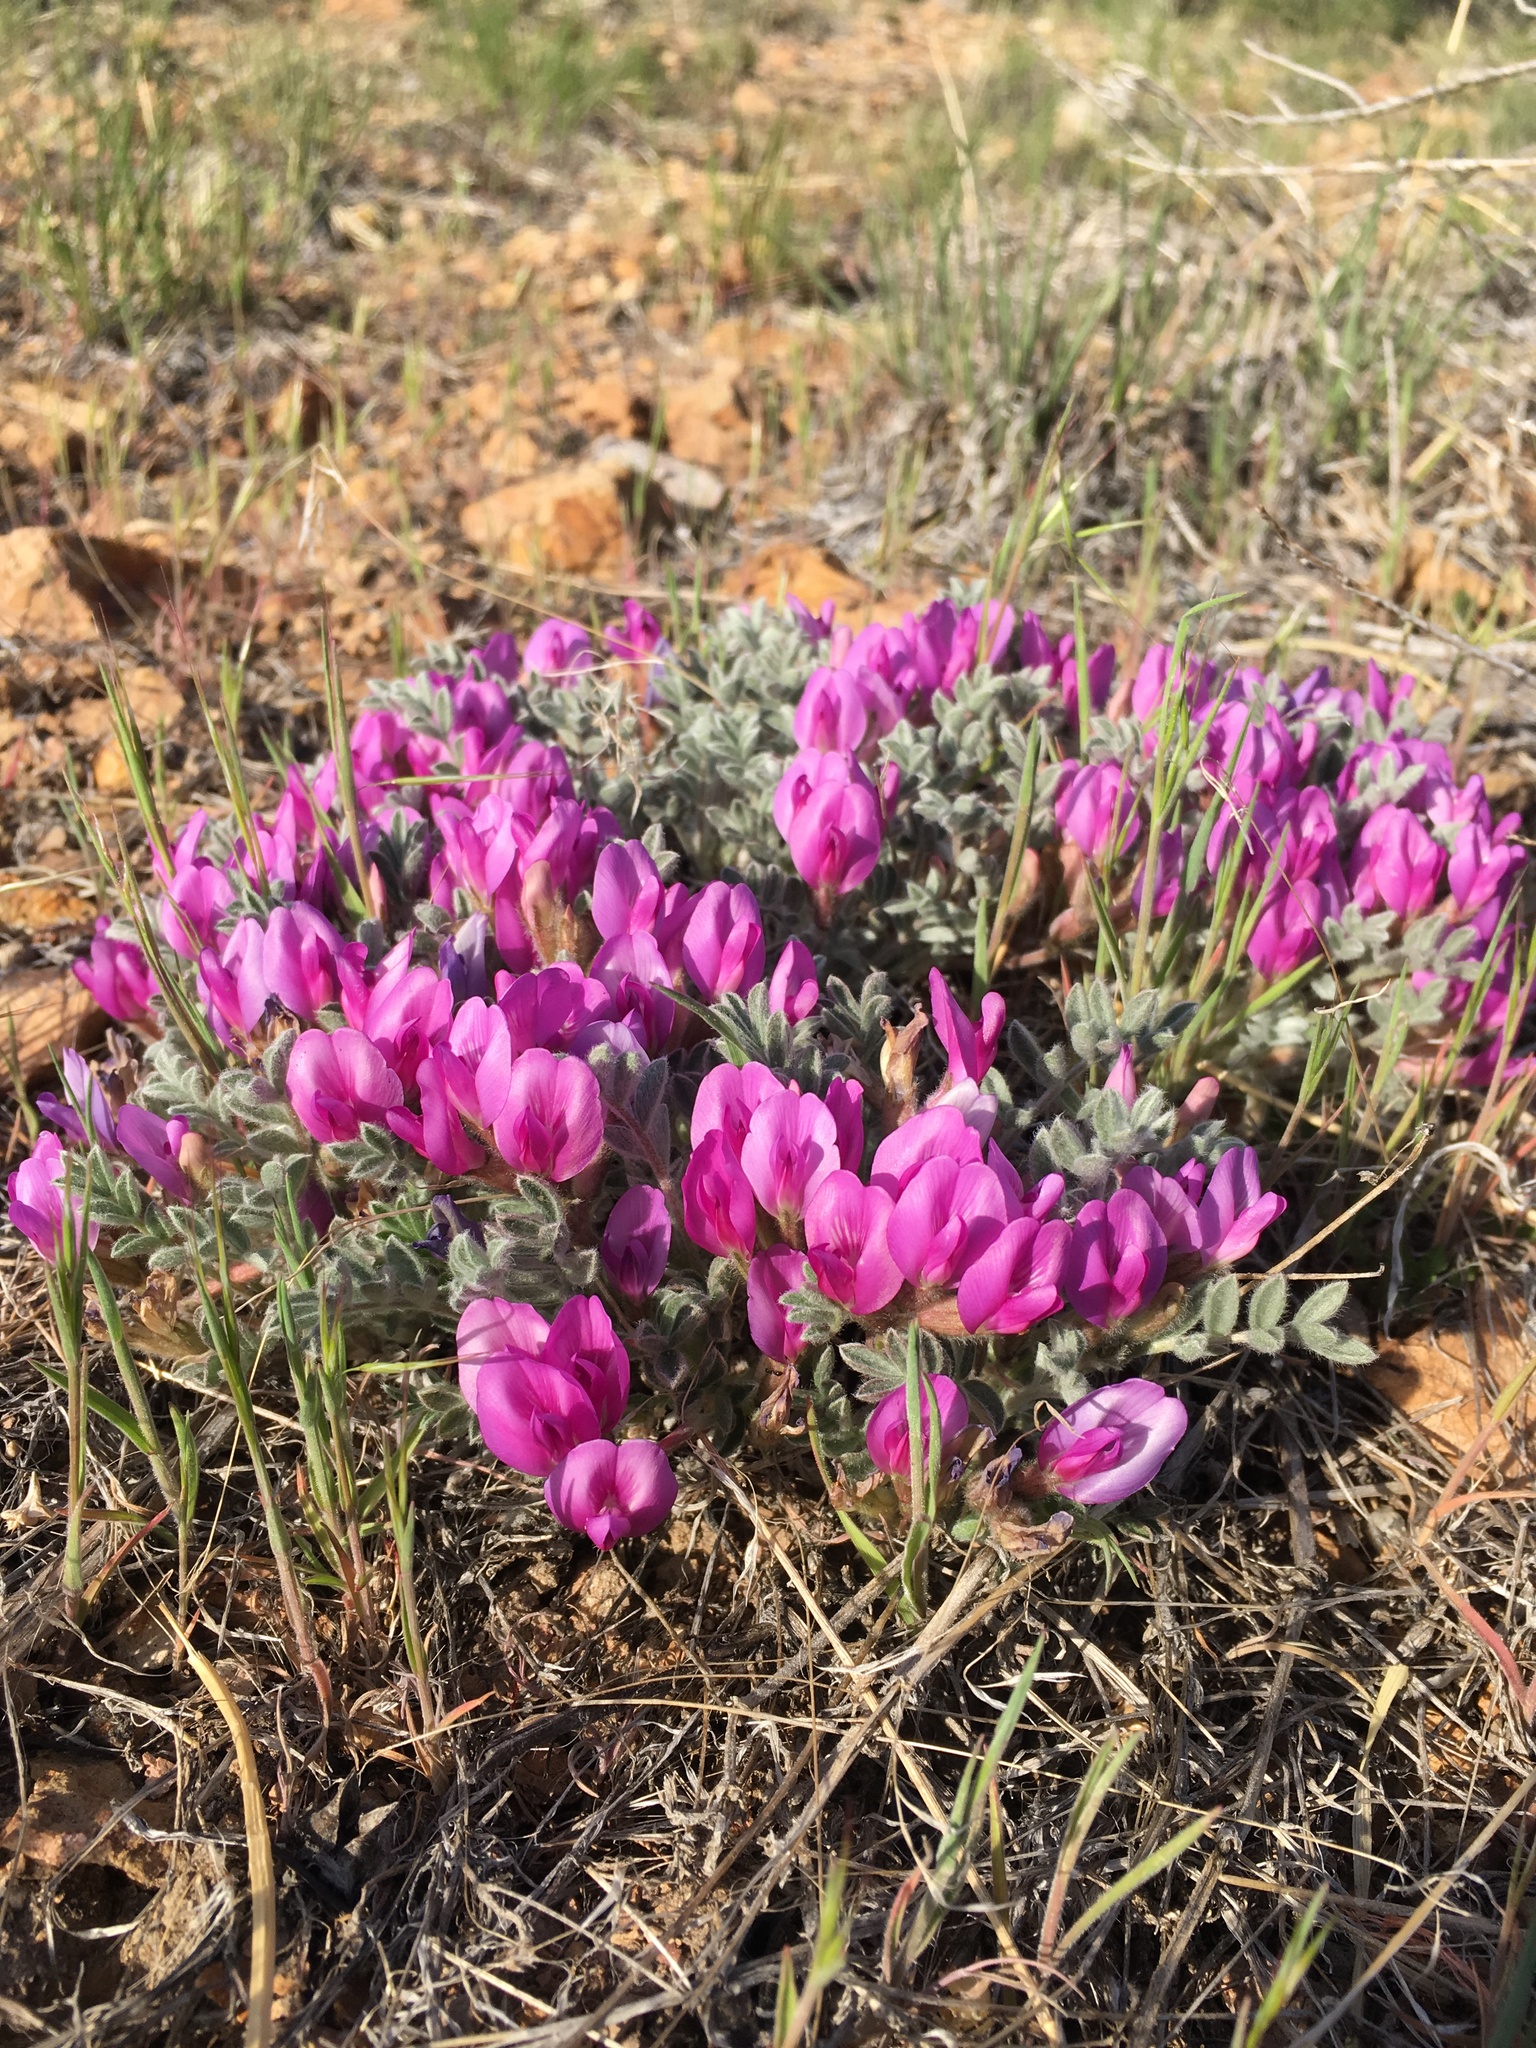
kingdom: Plantae
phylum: Tracheophyta
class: Magnoliopsida
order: Fabales
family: Fabaceae
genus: Astragalus
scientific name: Astragalus purshii
